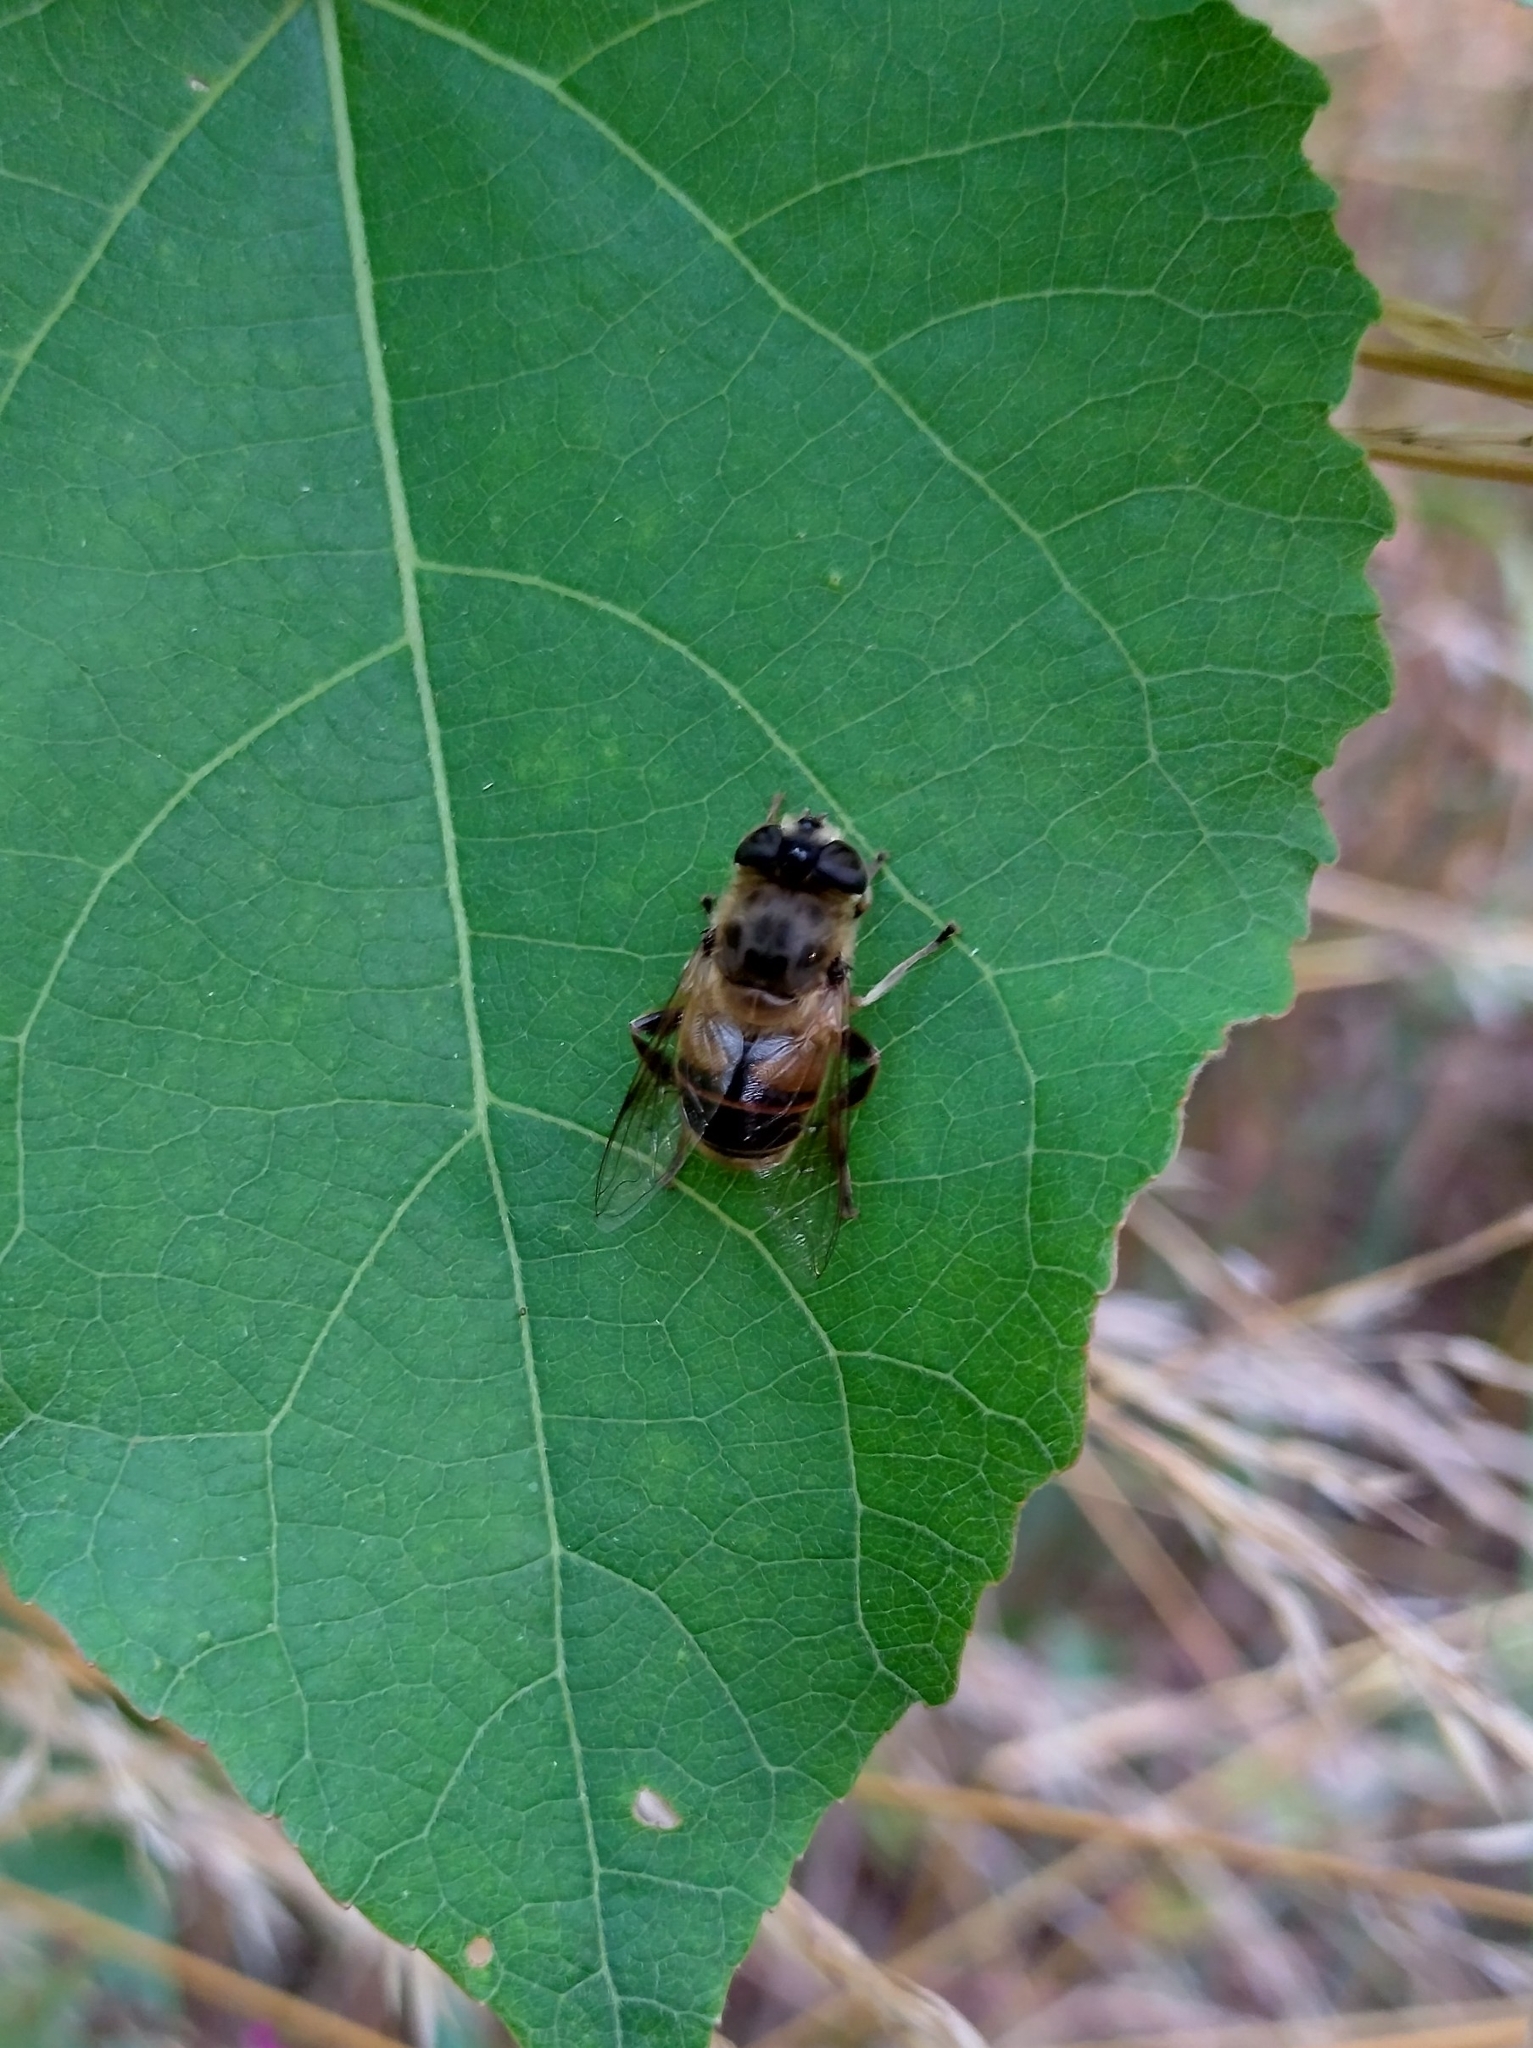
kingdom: Animalia
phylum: Arthropoda
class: Insecta
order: Diptera
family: Syrphidae
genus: Eristalis
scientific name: Eristalis tenax
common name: Drone fly
